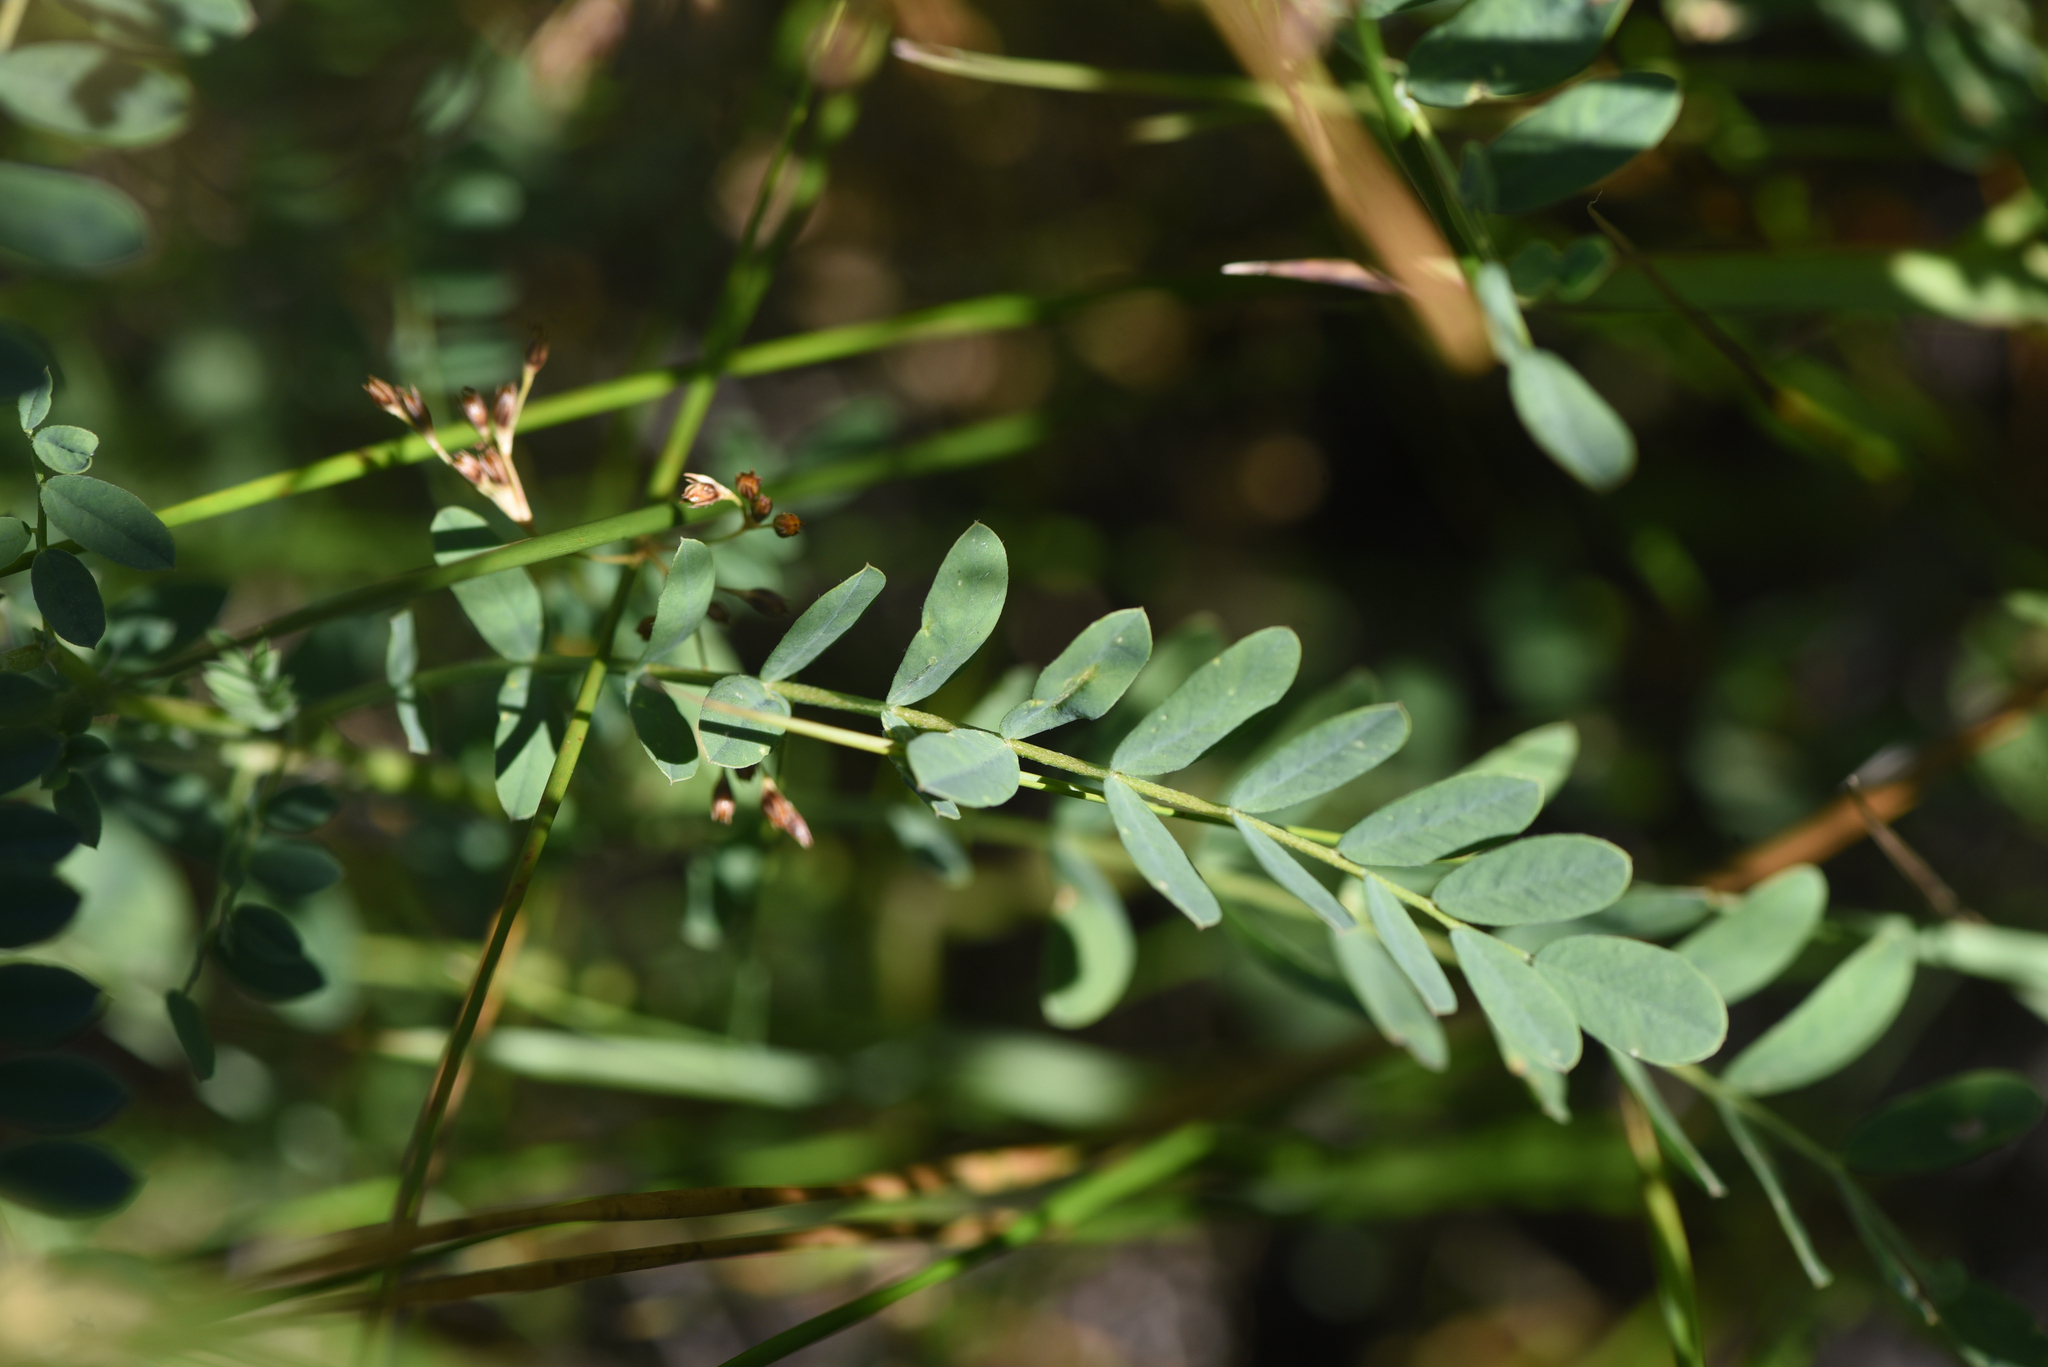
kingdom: Plantae
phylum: Tracheophyta
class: Magnoliopsida
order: Fabales
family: Fabaceae
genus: Astragalus
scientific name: Astragalus canadensis
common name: Canada milk-vetch
